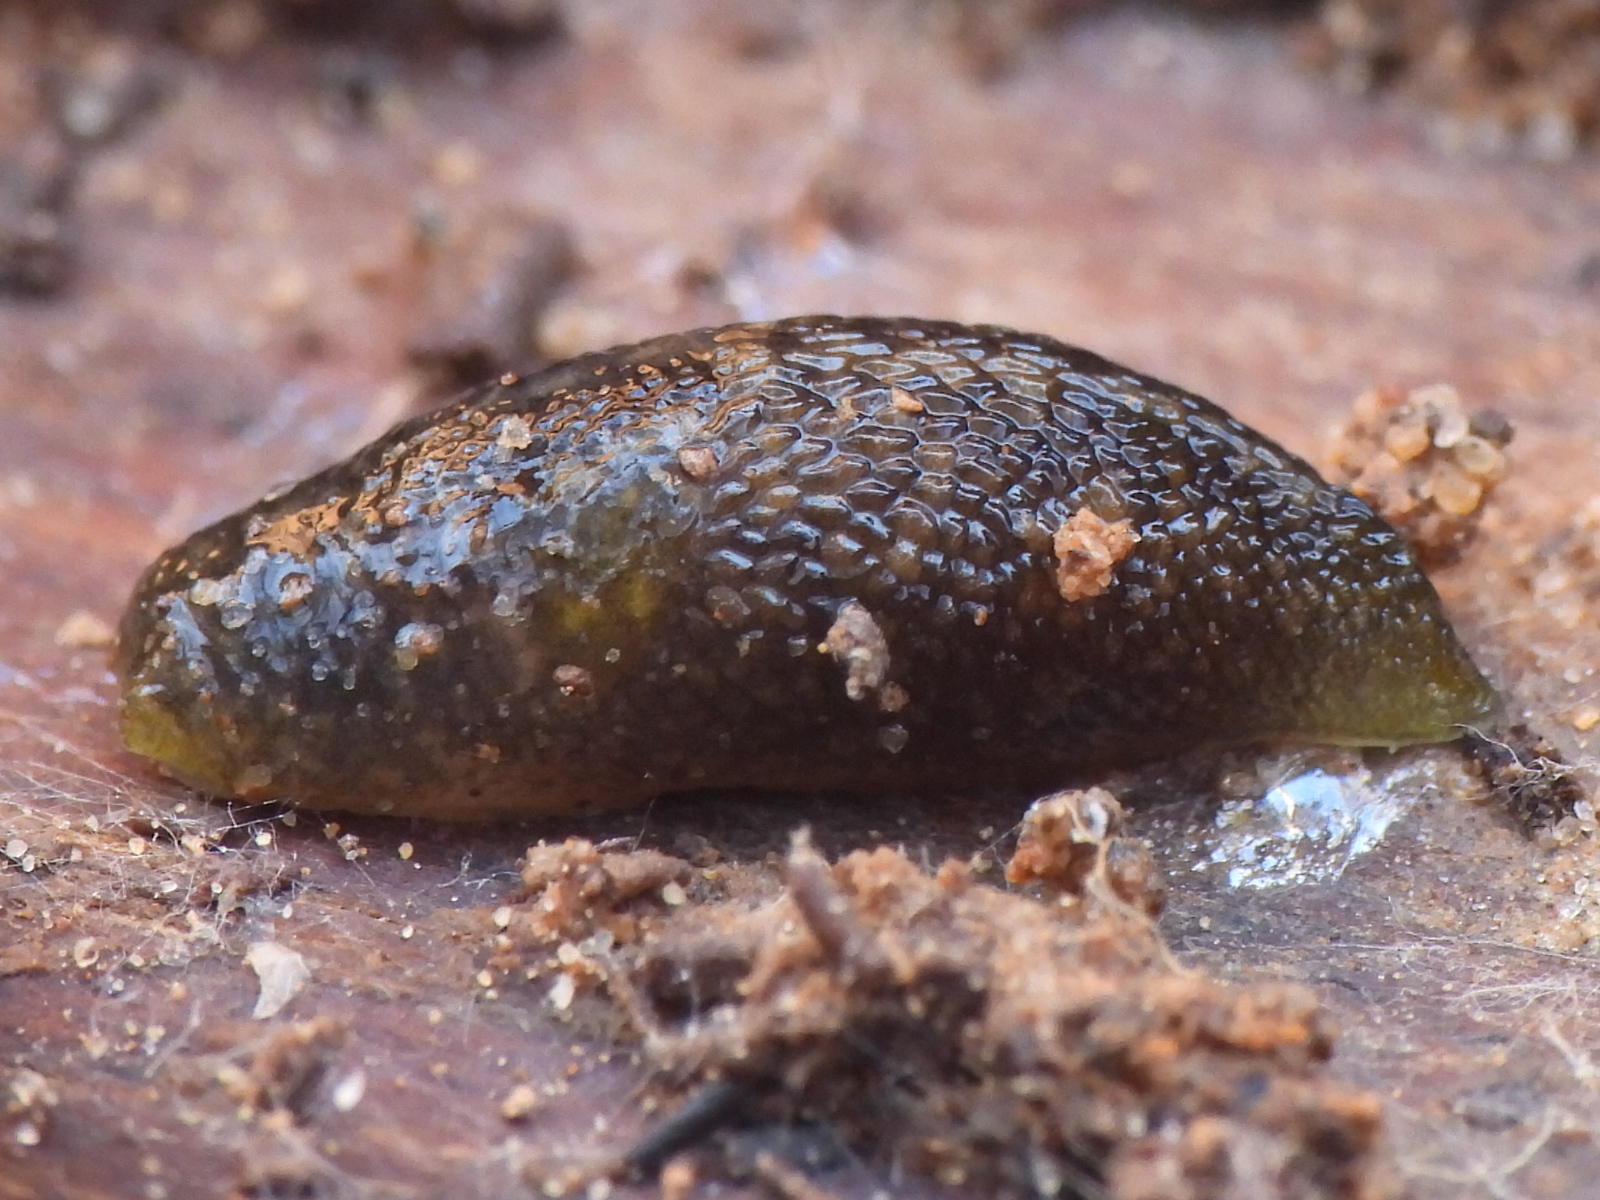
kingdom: Animalia
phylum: Mollusca
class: Gastropoda
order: Stylommatophora
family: Limacidae
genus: Limacus
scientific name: Limacus flavus
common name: Yellow gardenslug
